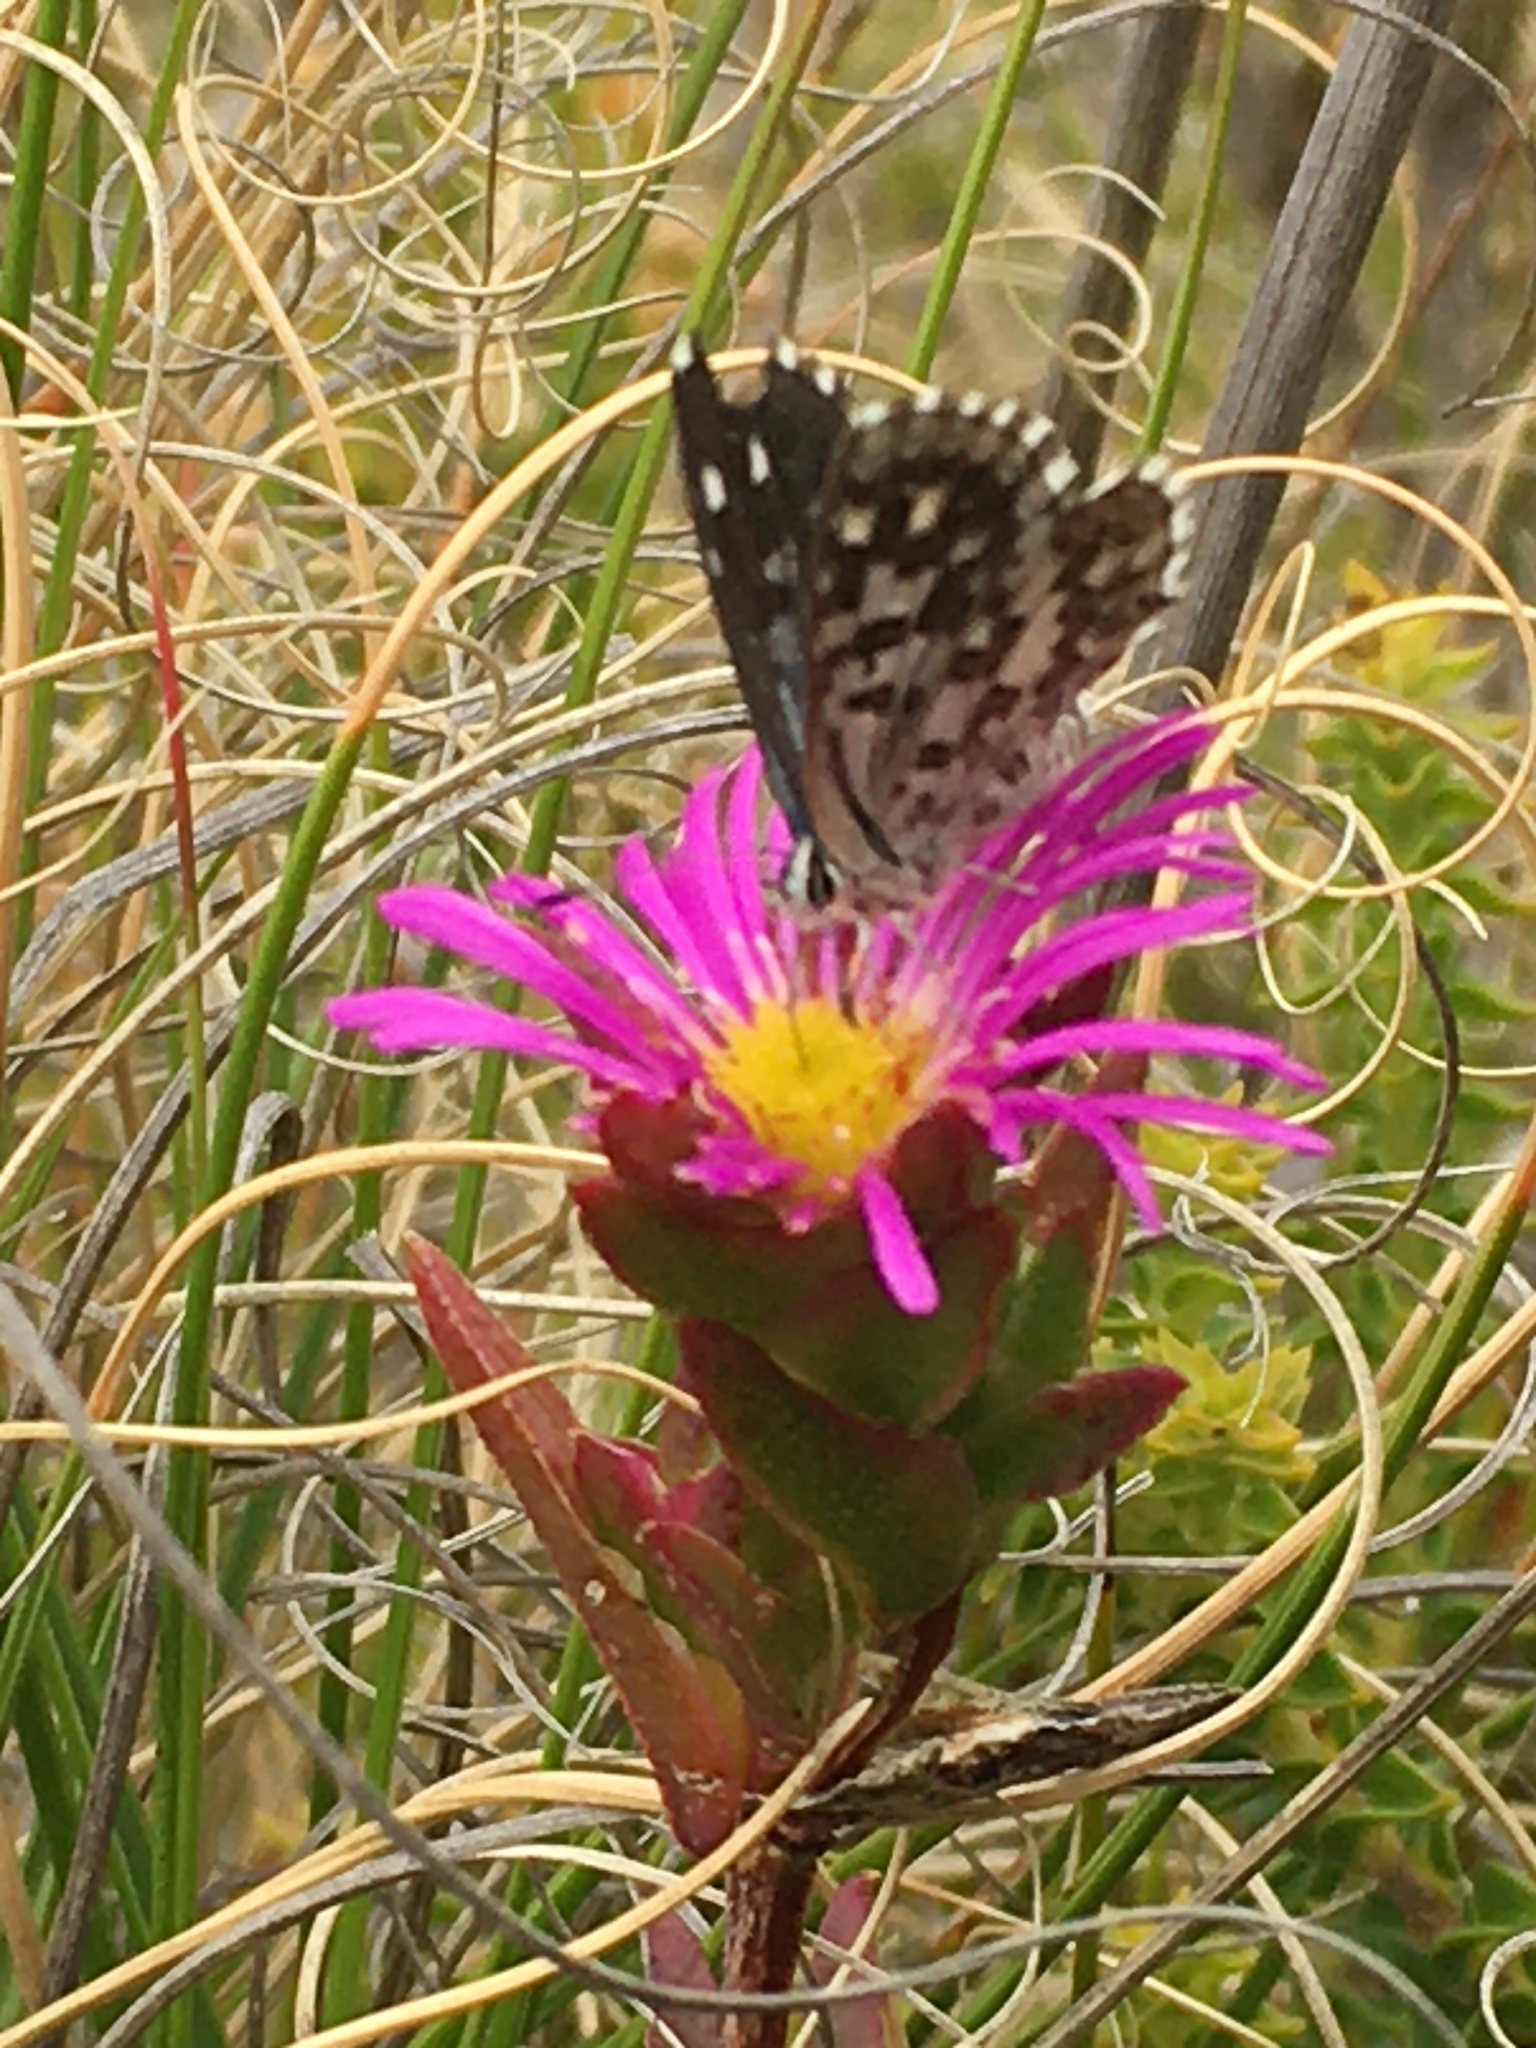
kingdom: Animalia
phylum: Arthropoda
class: Insecta
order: Lepidoptera
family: Lycaenidae
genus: Tarucus
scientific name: Tarucus thespis
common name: Vivid dotted blue
